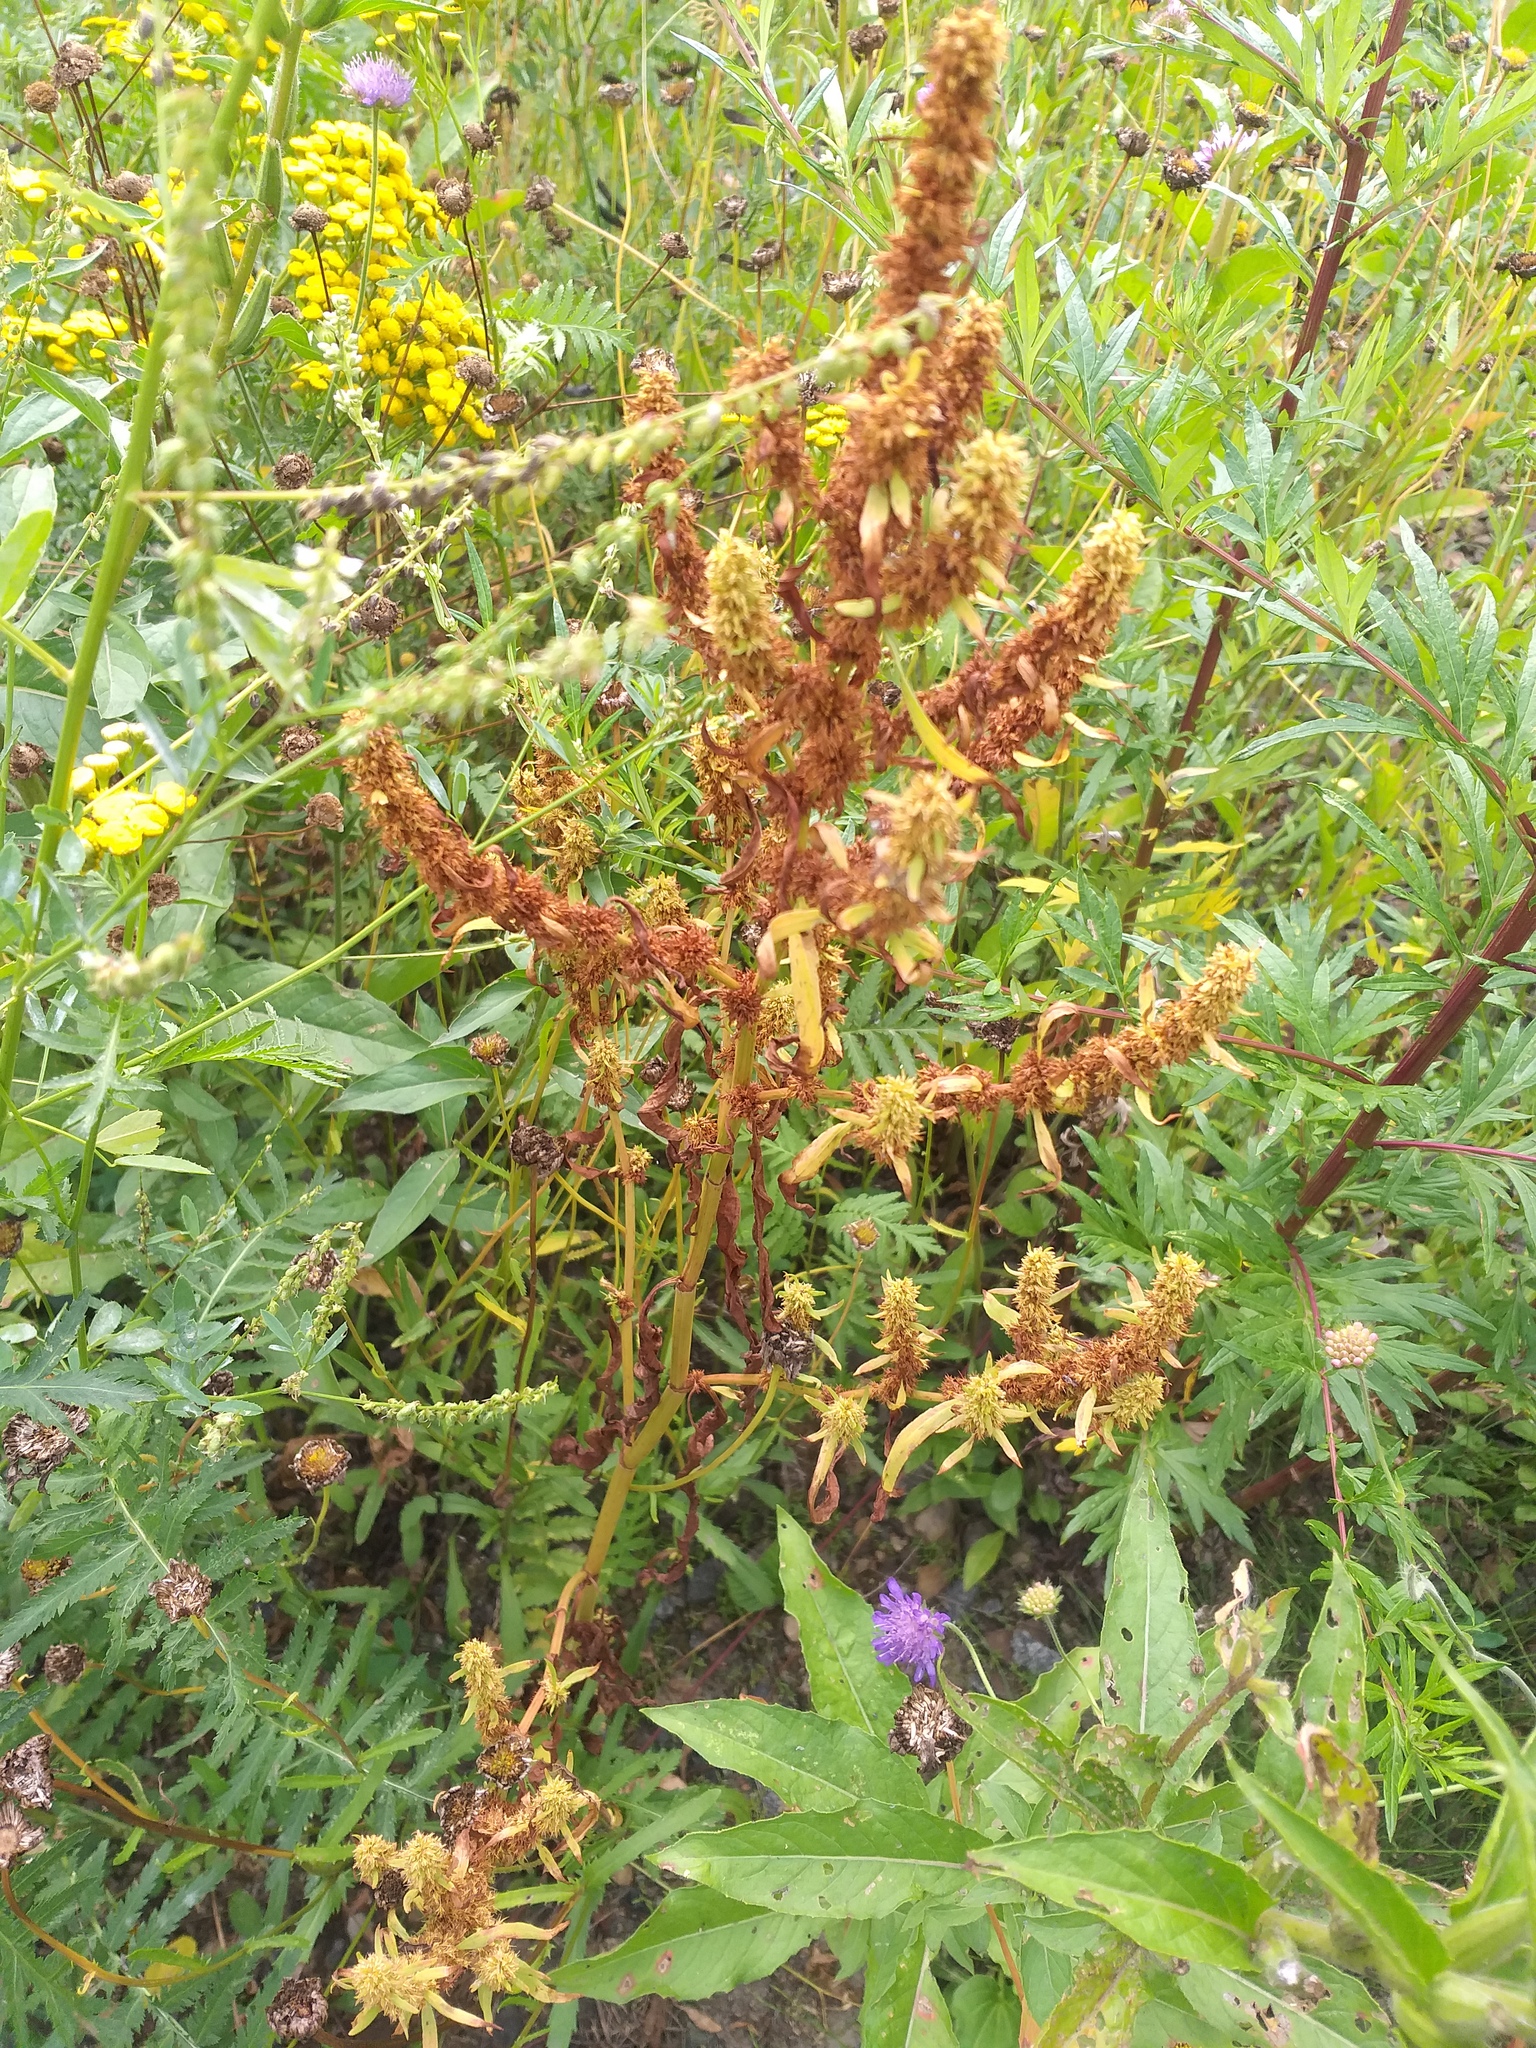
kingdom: Plantae
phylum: Tracheophyta
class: Magnoliopsida
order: Caryophyllales
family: Polygonaceae
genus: Rumex
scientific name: Rumex maritimus
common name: Golden dock
